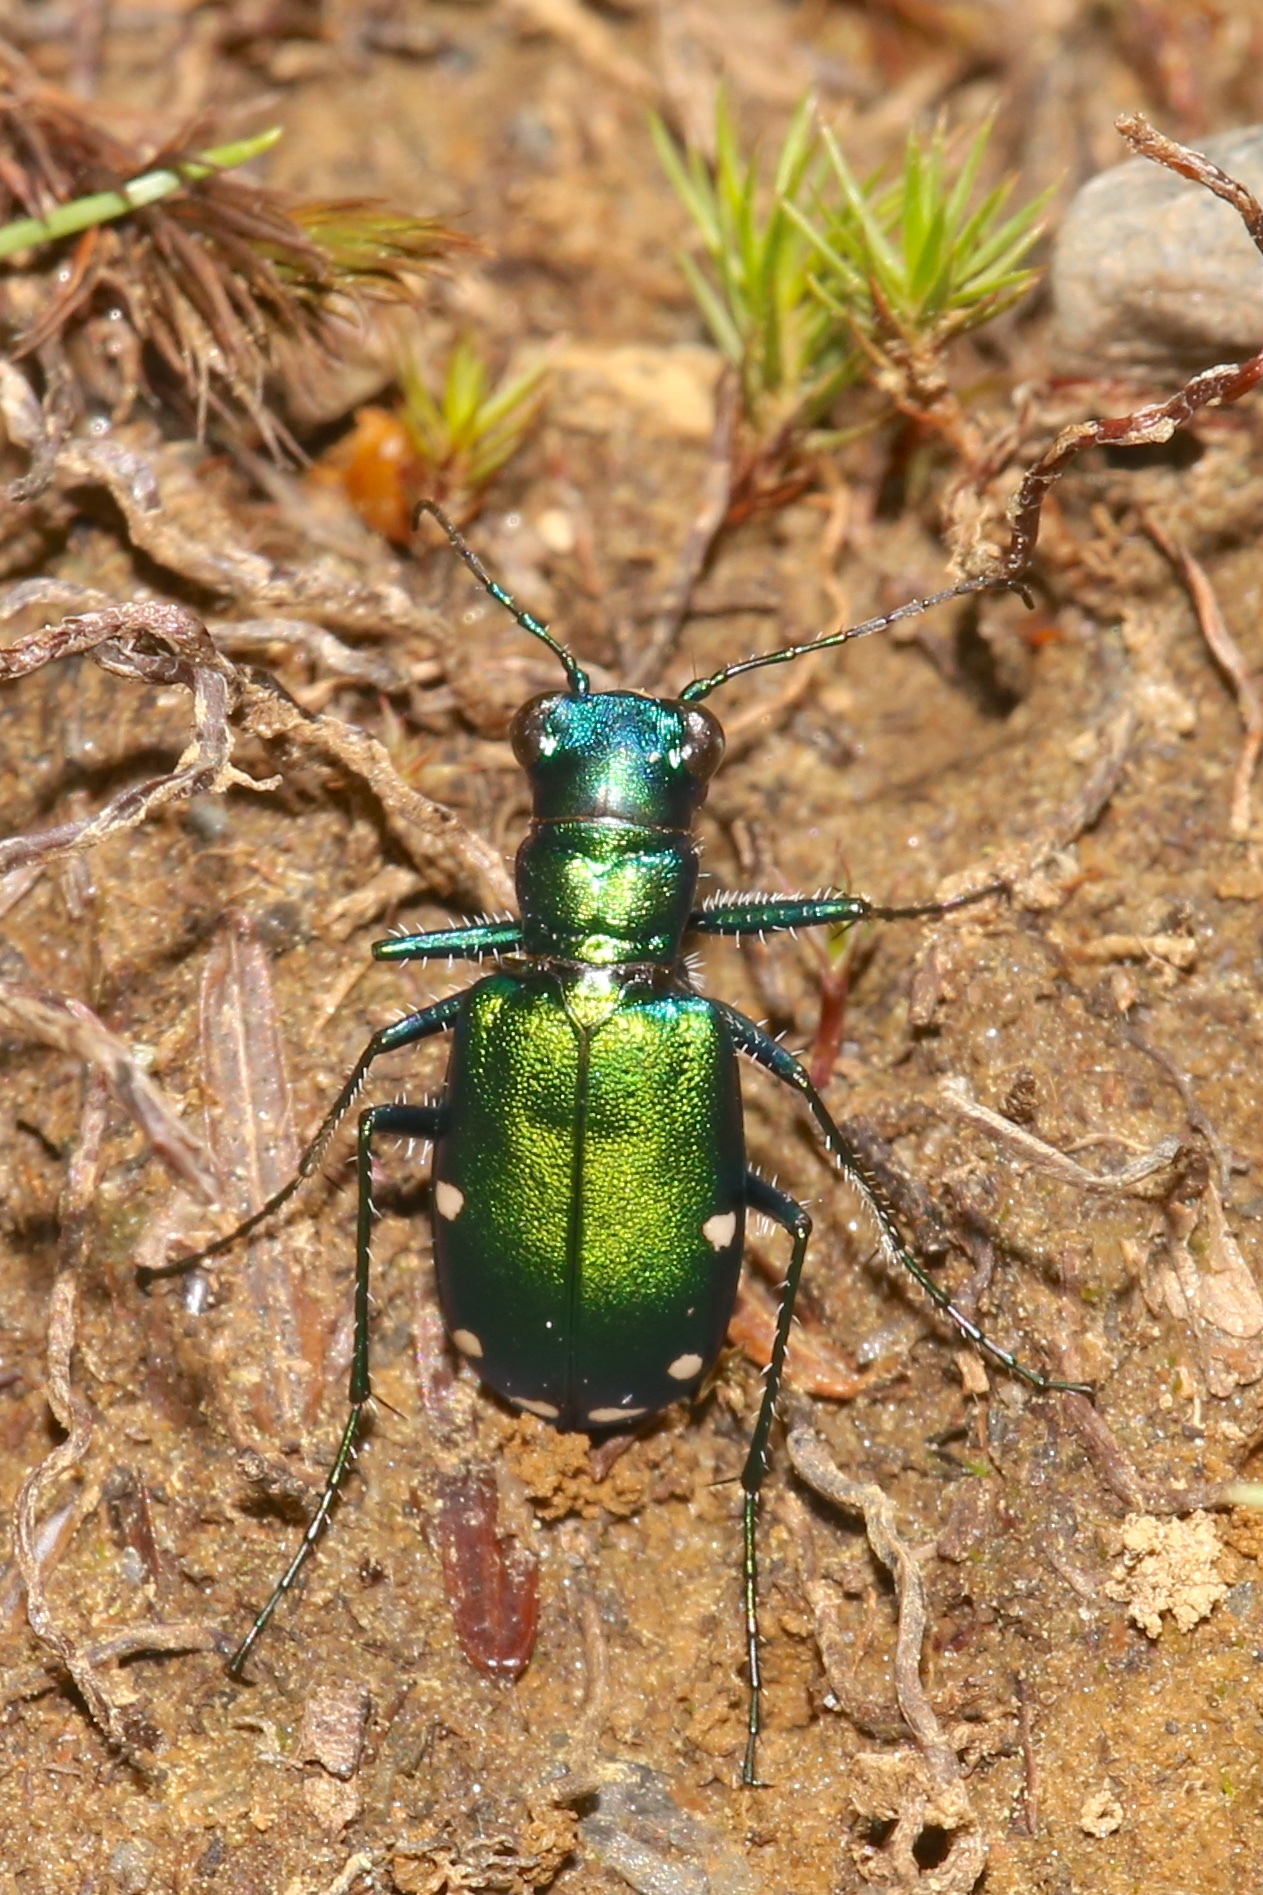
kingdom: Animalia
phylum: Arthropoda
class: Insecta
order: Coleoptera
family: Carabidae
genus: Cicindela
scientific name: Cicindela sexguttata
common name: Six-spotted tiger beetle
